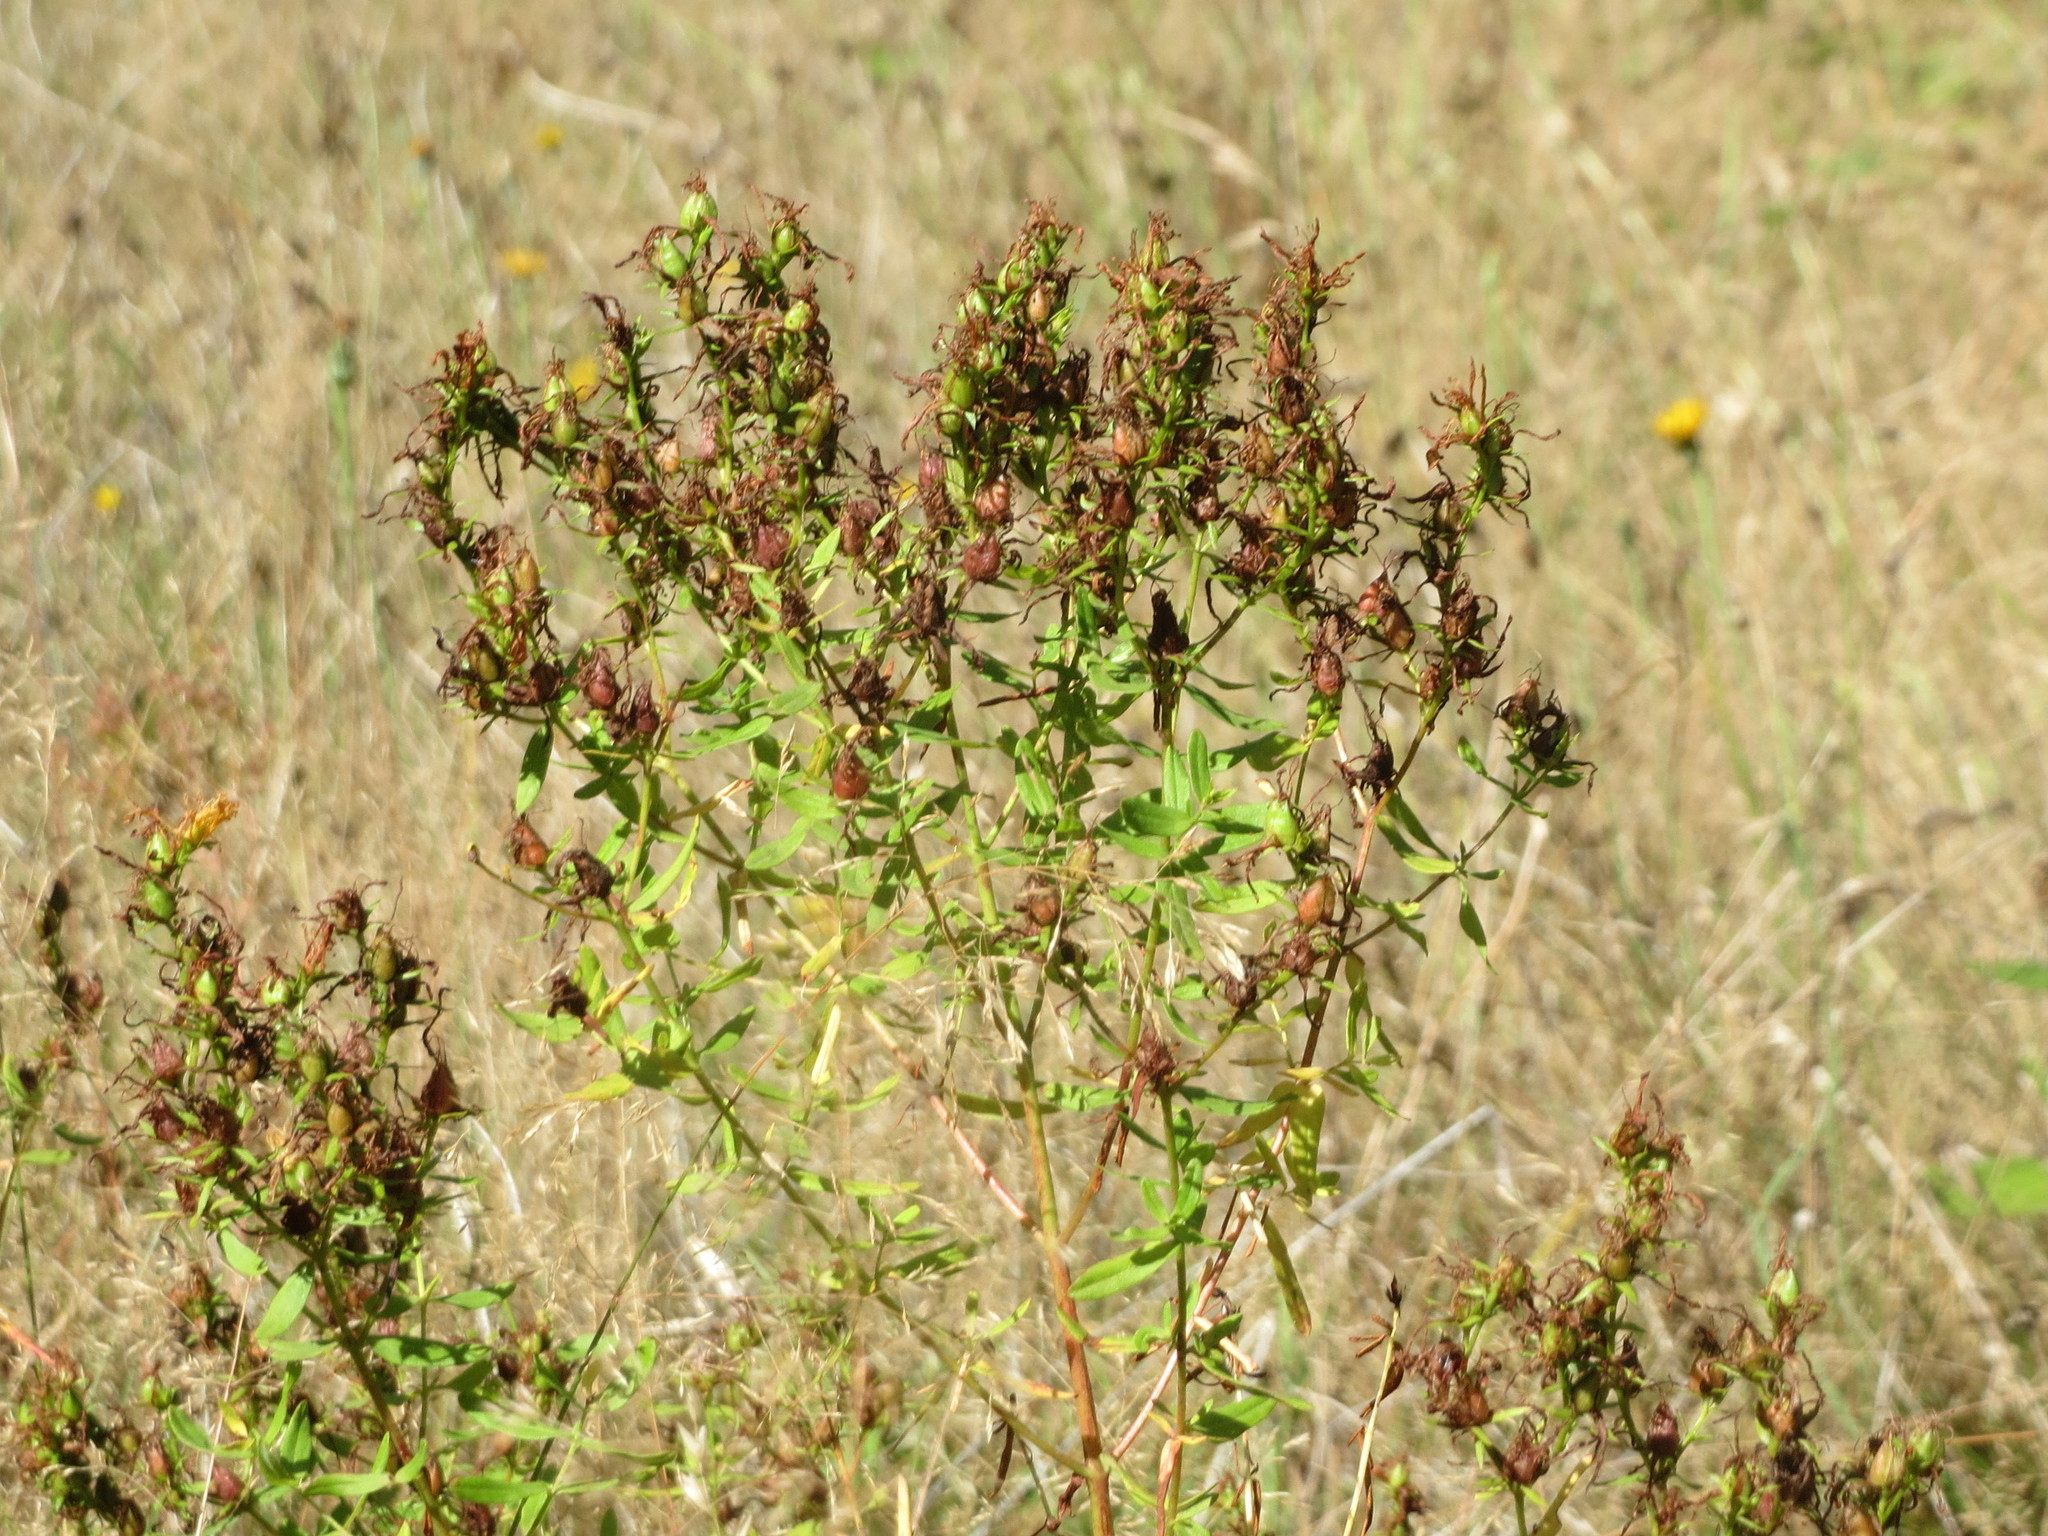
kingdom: Plantae
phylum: Tracheophyta
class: Magnoliopsida
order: Malpighiales
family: Hypericaceae
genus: Hypericum
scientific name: Hypericum perforatum
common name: Common st. johnswort
